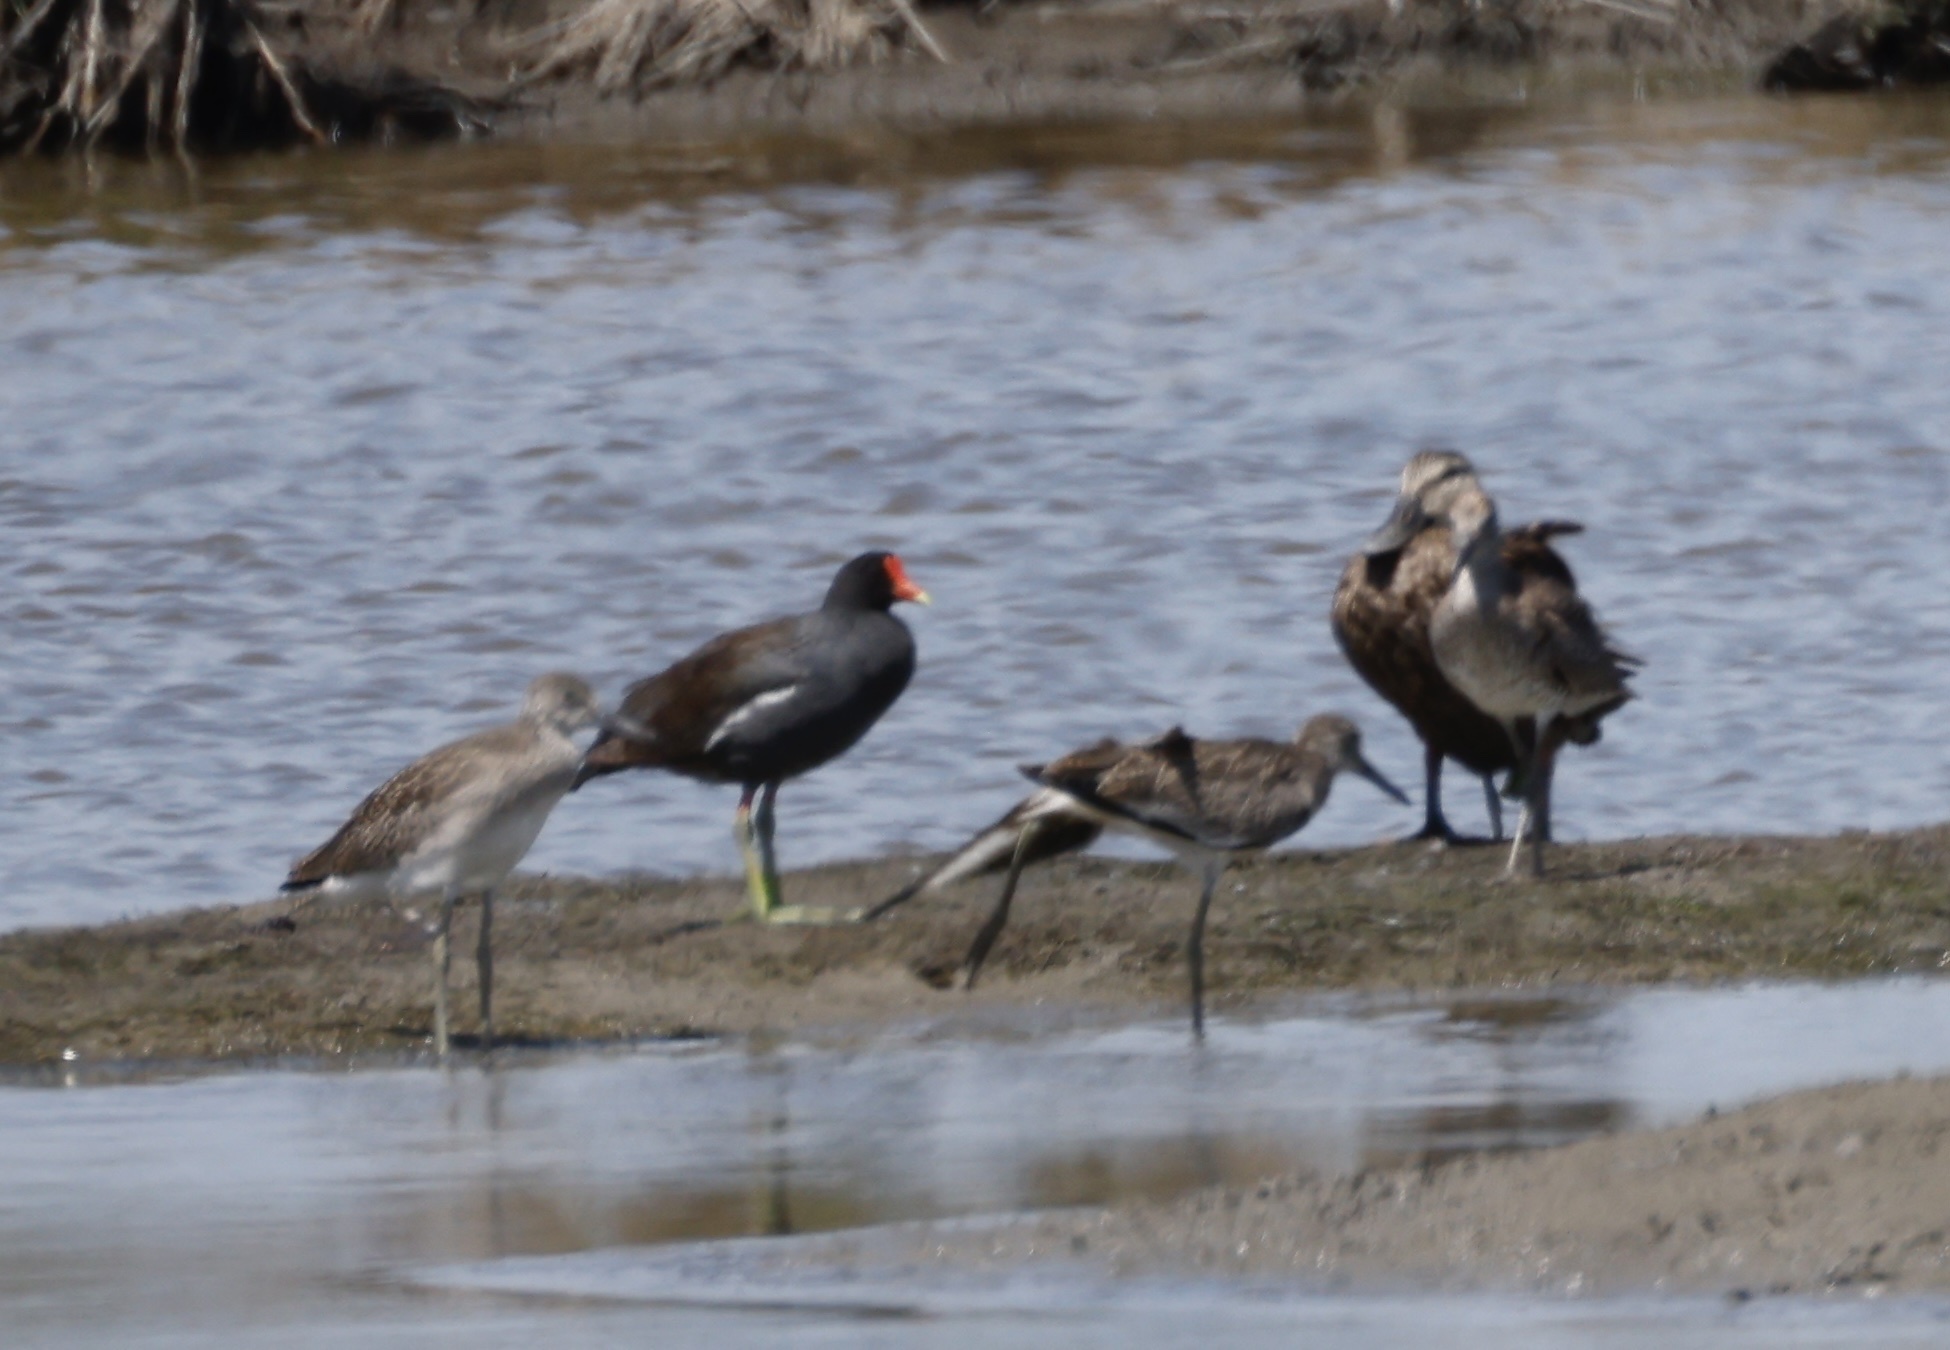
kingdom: Animalia
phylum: Chordata
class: Aves
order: Gruiformes
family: Rallidae
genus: Gallinula
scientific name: Gallinula chloropus
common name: Common moorhen
